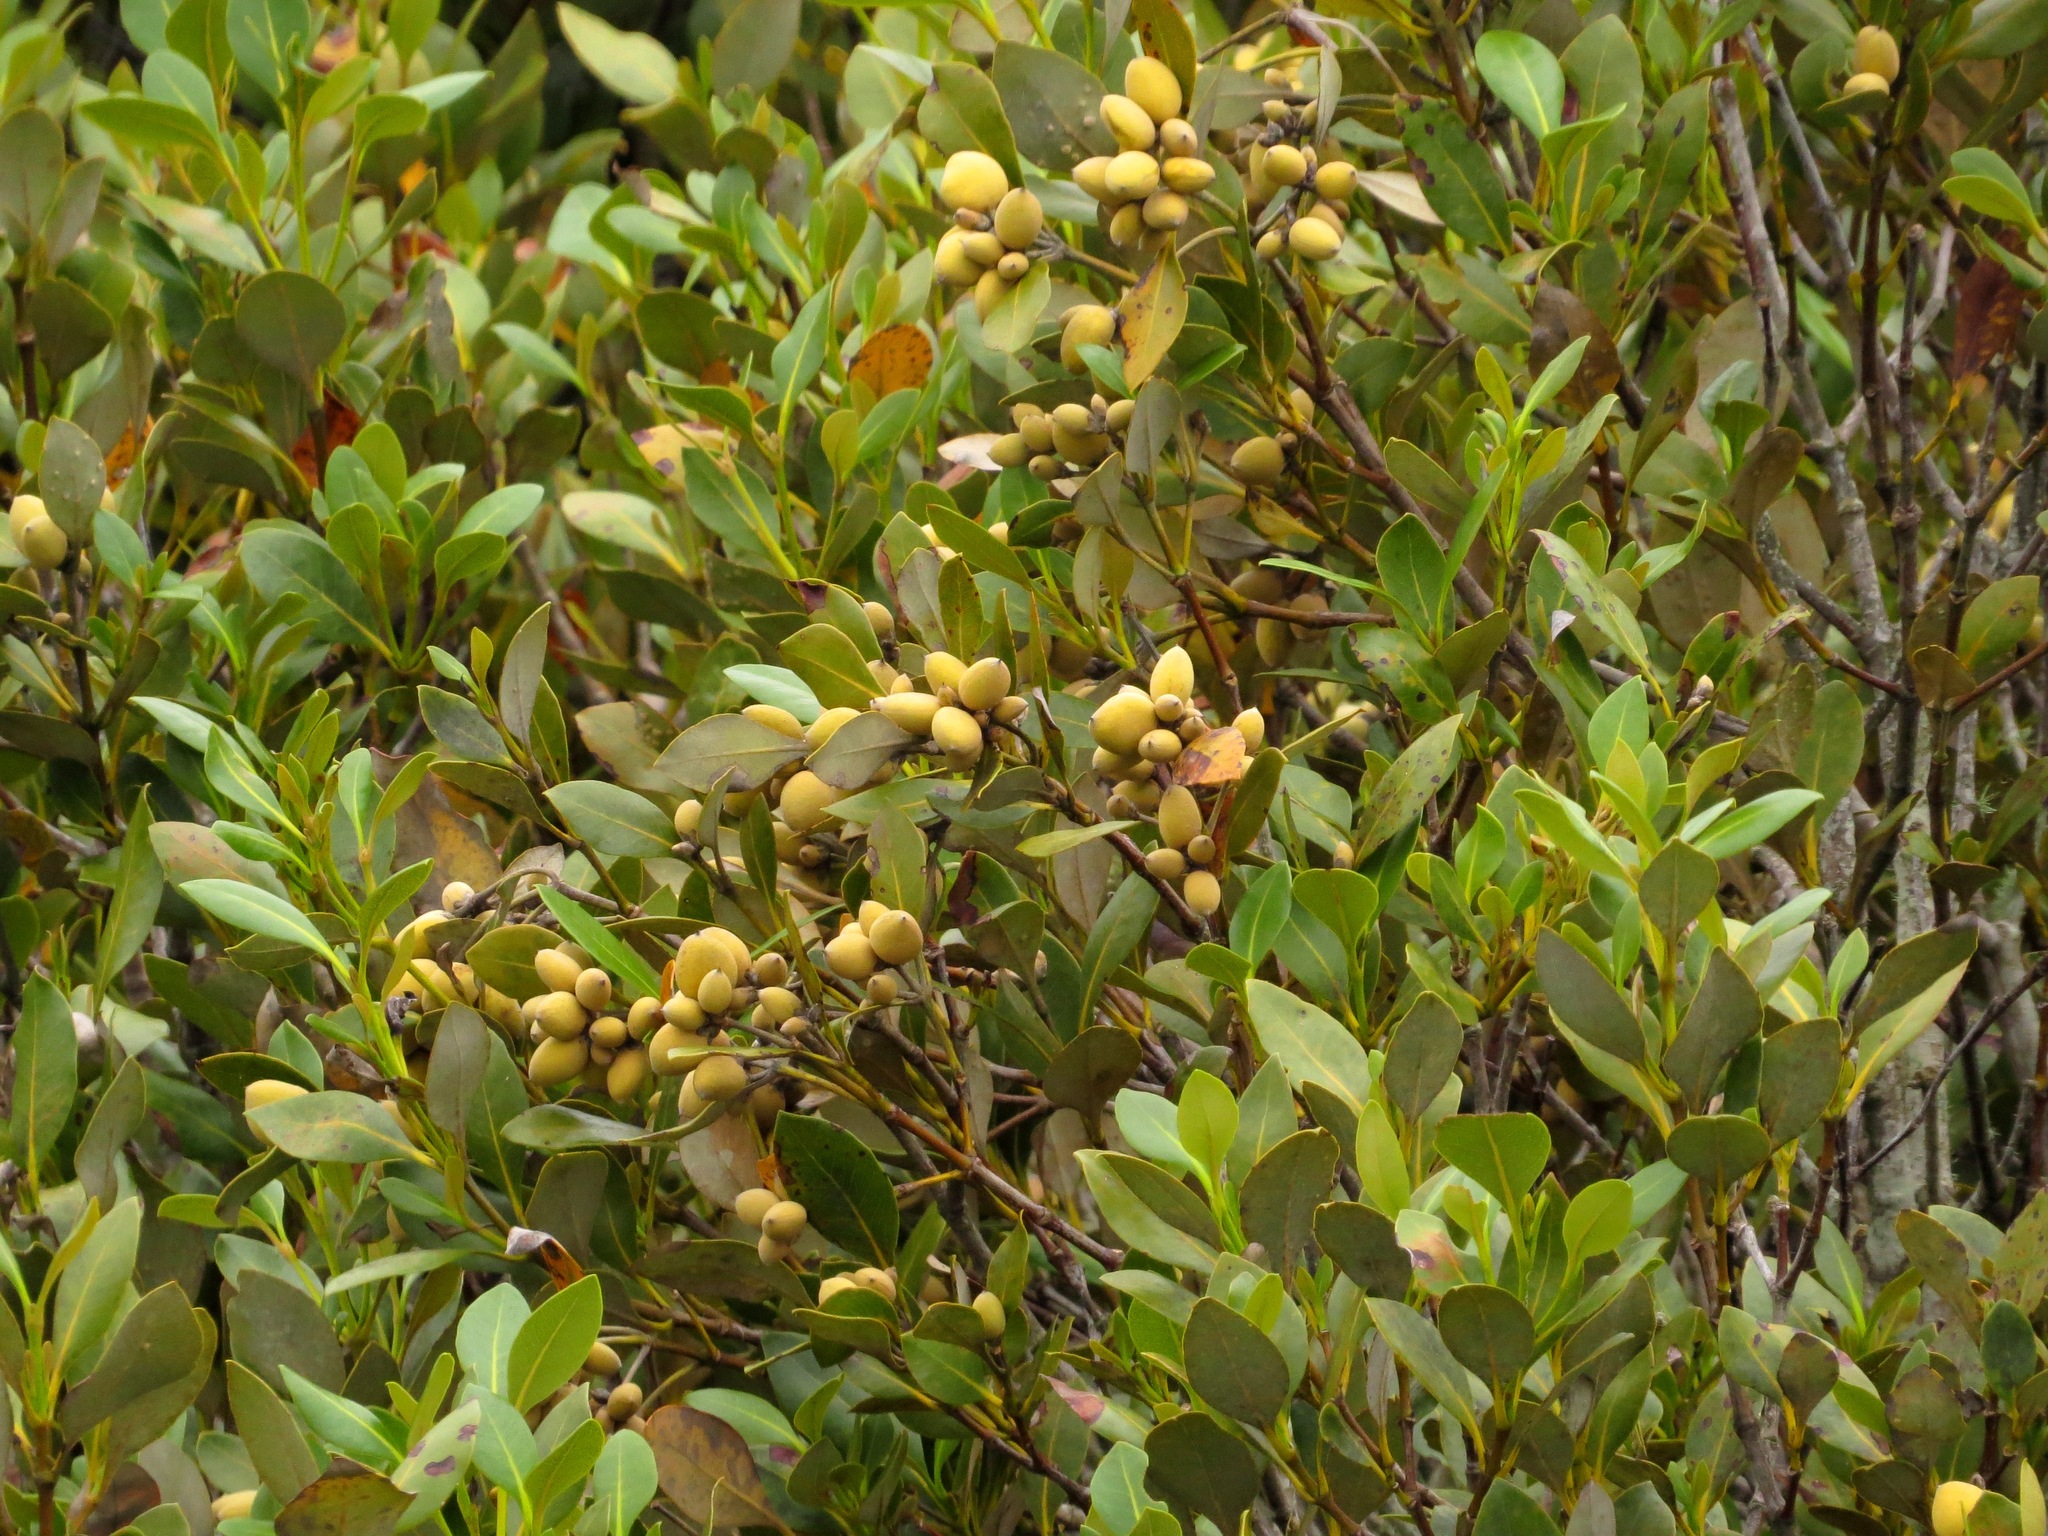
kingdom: Plantae
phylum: Tracheophyta
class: Magnoliopsida
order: Lamiales
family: Acanthaceae
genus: Avicennia
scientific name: Avicennia marina
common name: Gray mangrove
